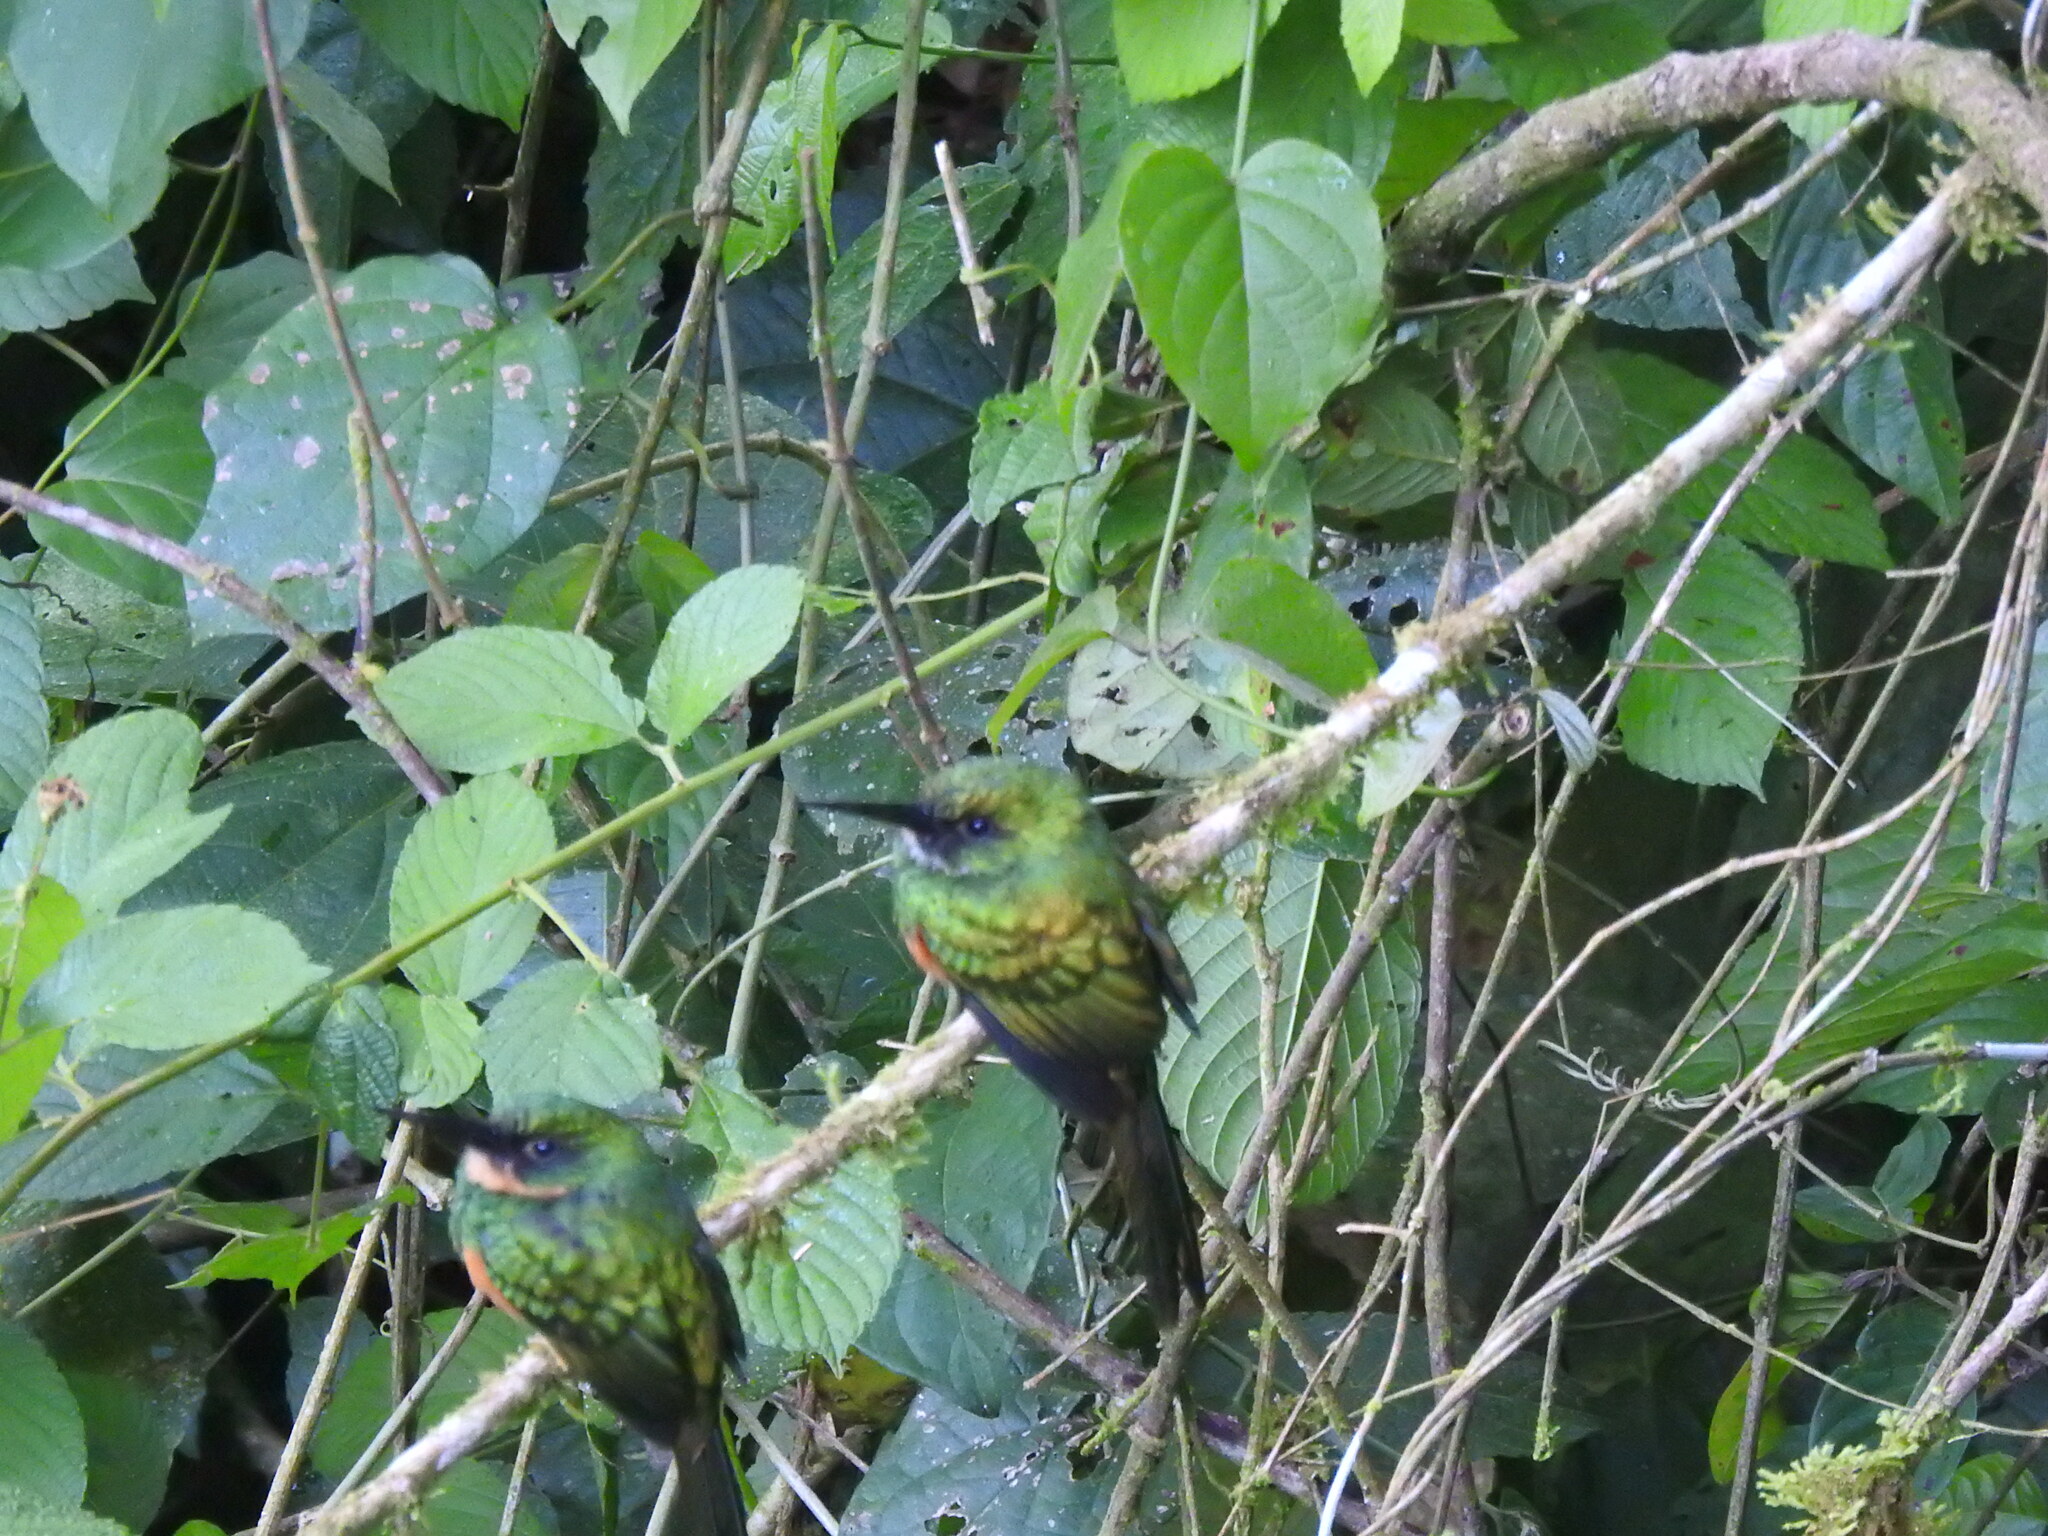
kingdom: Animalia
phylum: Chordata
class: Aves
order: Piciformes
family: Galbulidae
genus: Galbula
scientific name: Galbula ruficauda
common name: Rufous-tailed jacamar
